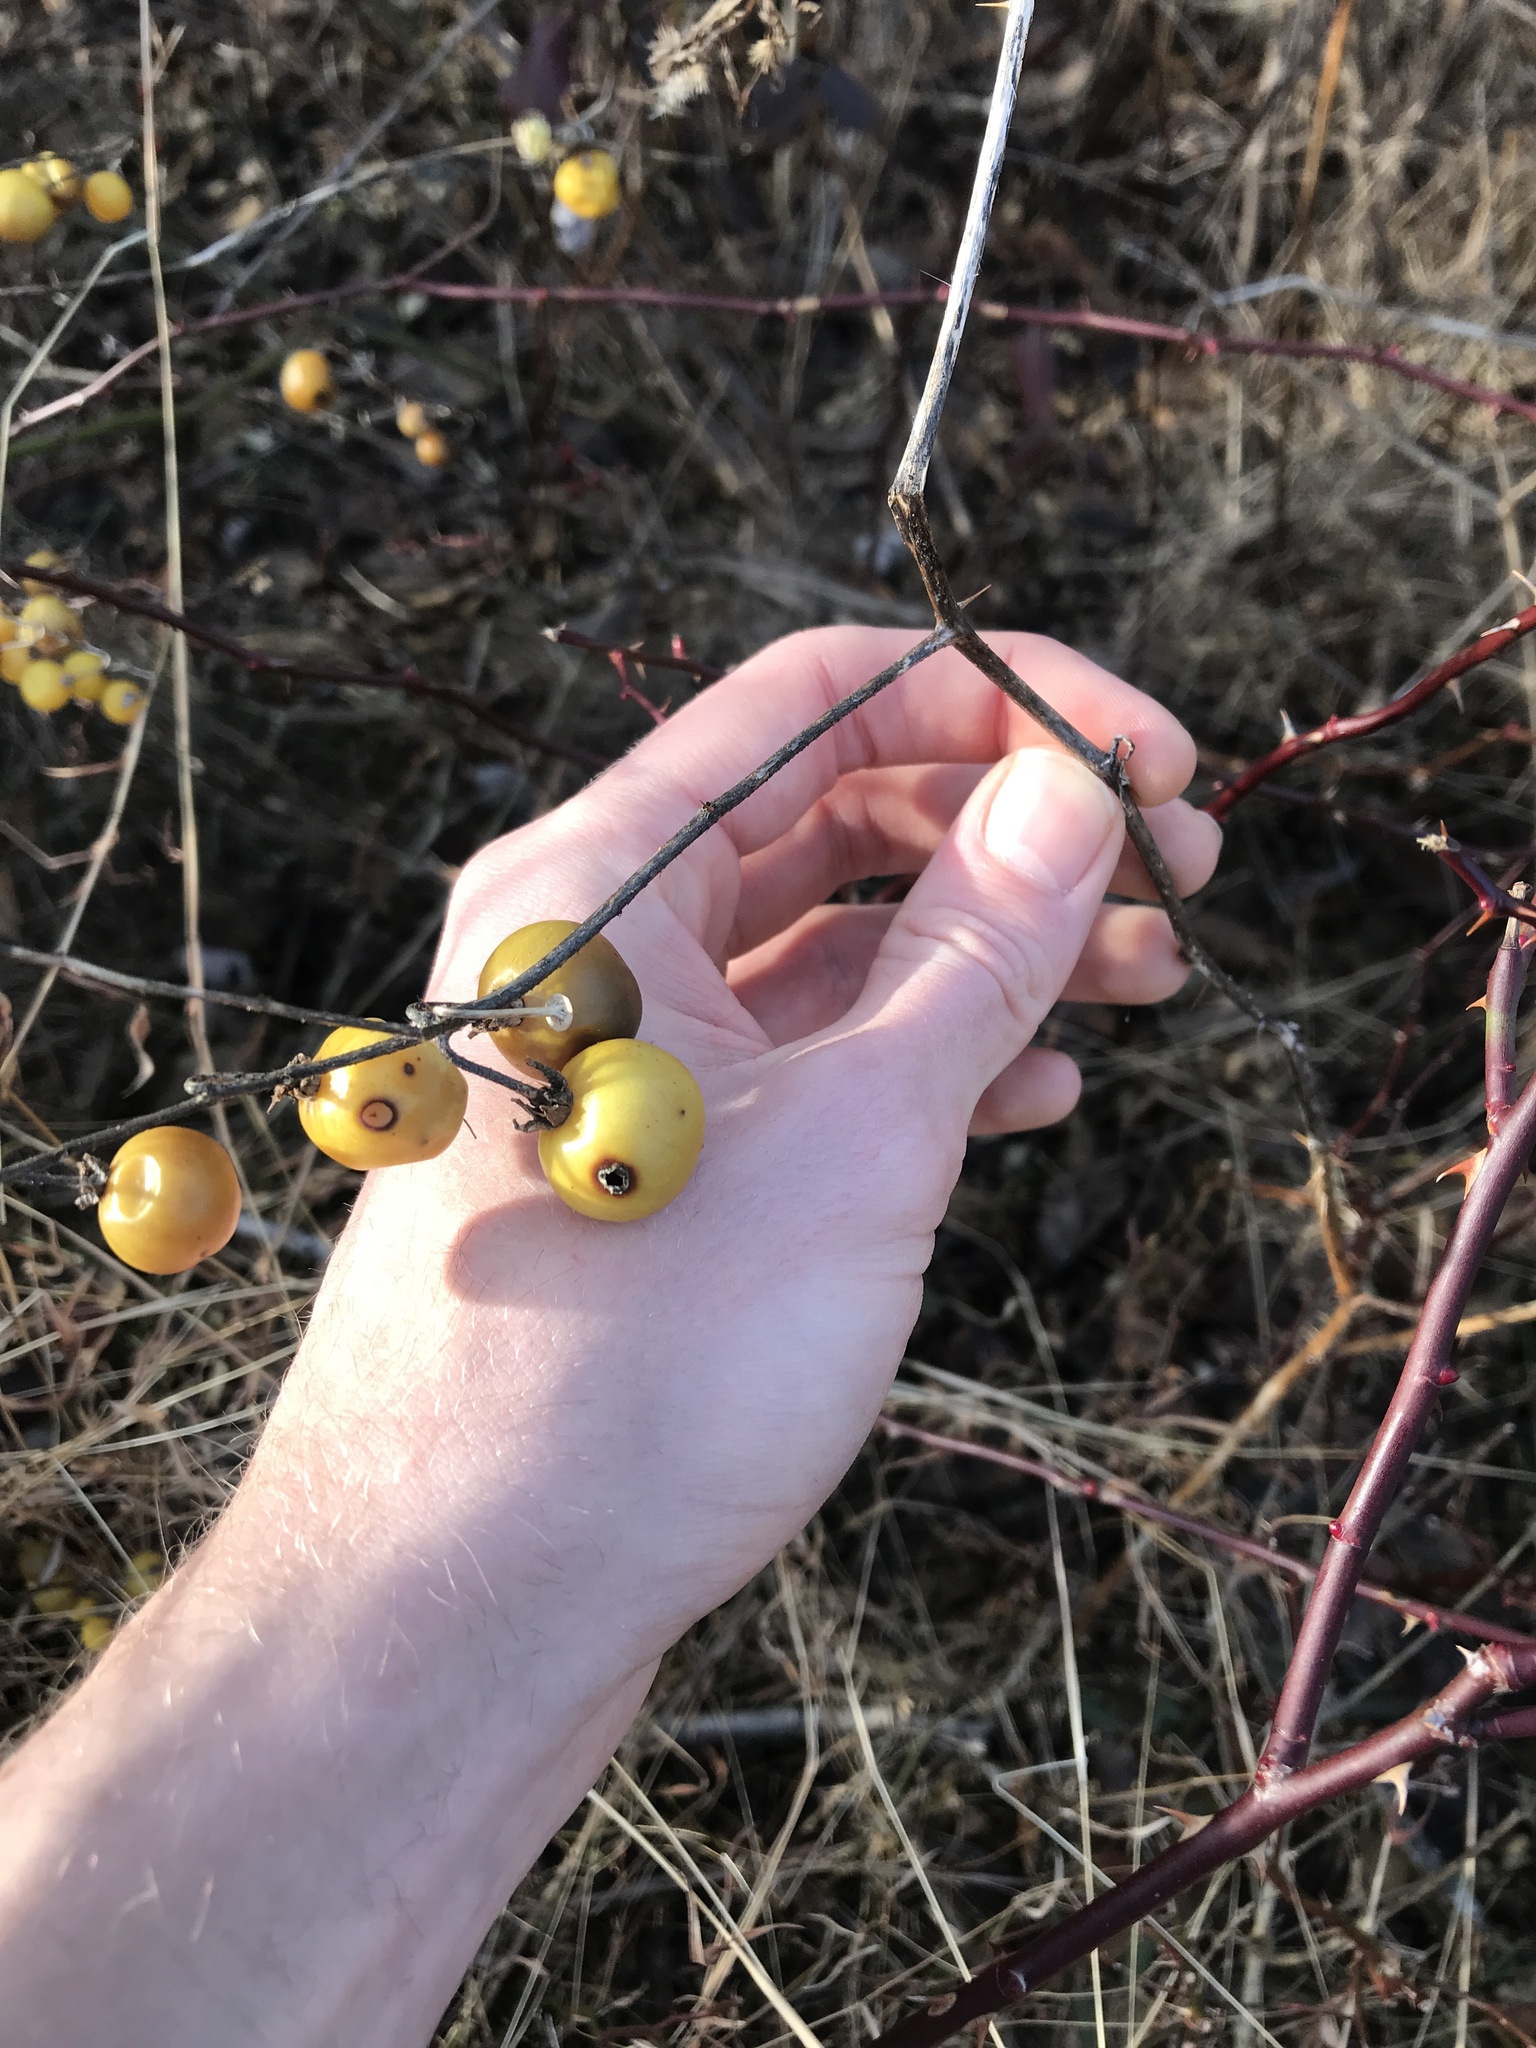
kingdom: Plantae
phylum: Tracheophyta
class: Magnoliopsida
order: Solanales
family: Solanaceae
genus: Solanum
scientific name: Solanum carolinense
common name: Horse-nettle
